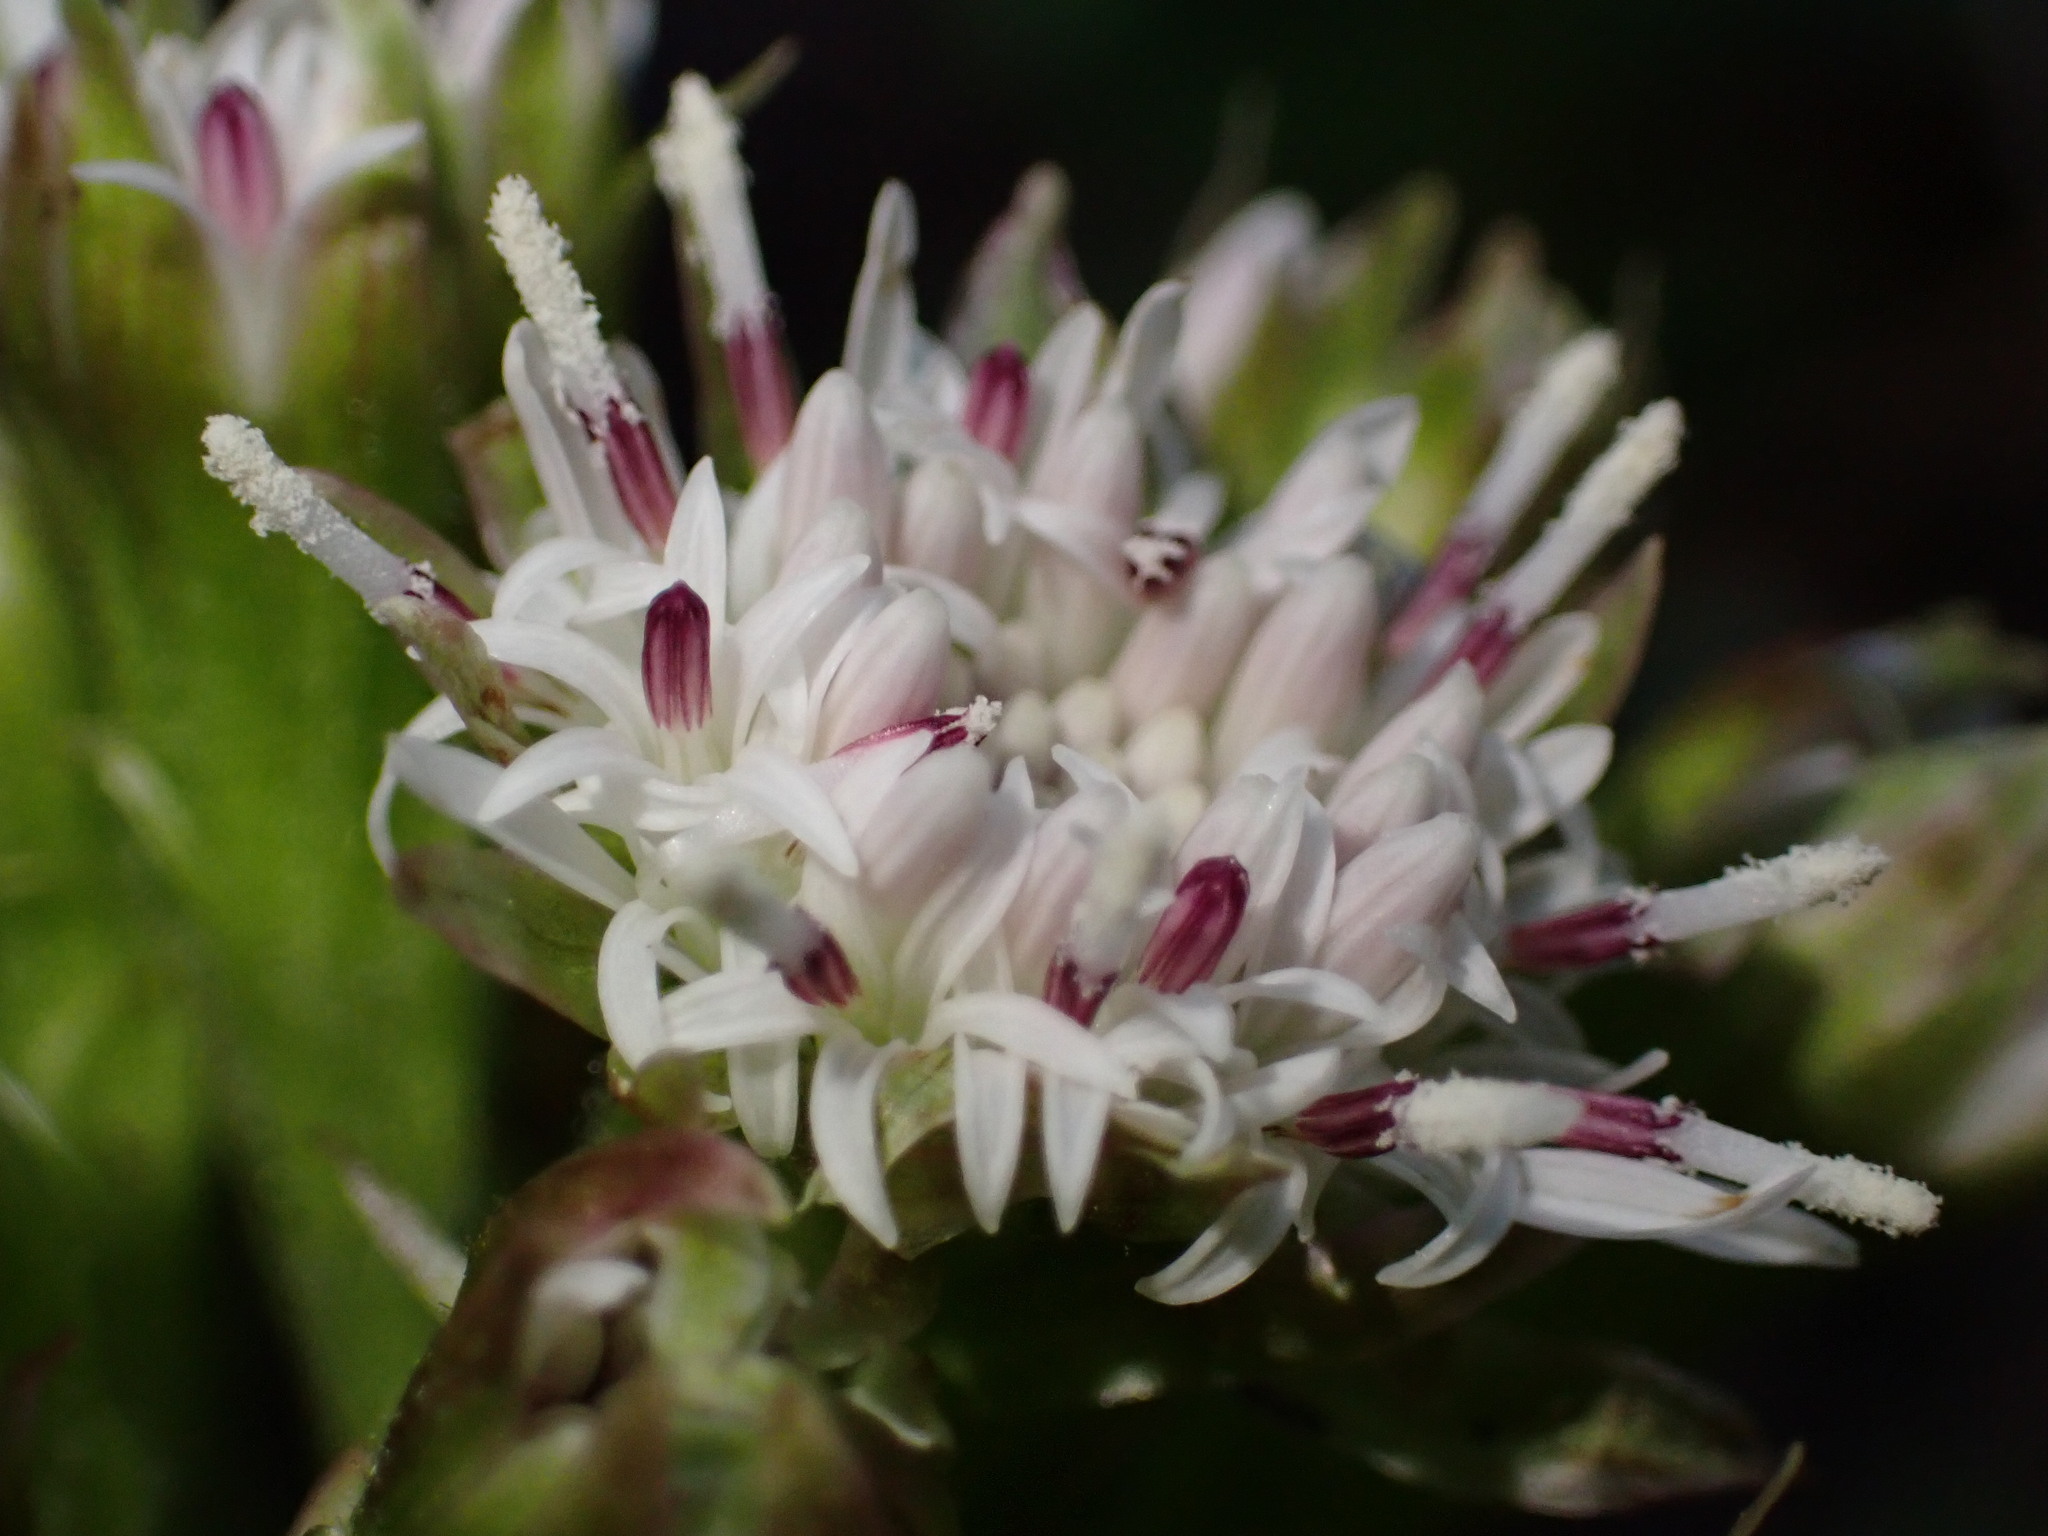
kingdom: Plantae
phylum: Tracheophyta
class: Magnoliopsida
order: Asterales
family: Asteraceae
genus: Petasites
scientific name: Petasites frigidus
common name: Arctic butterbur
